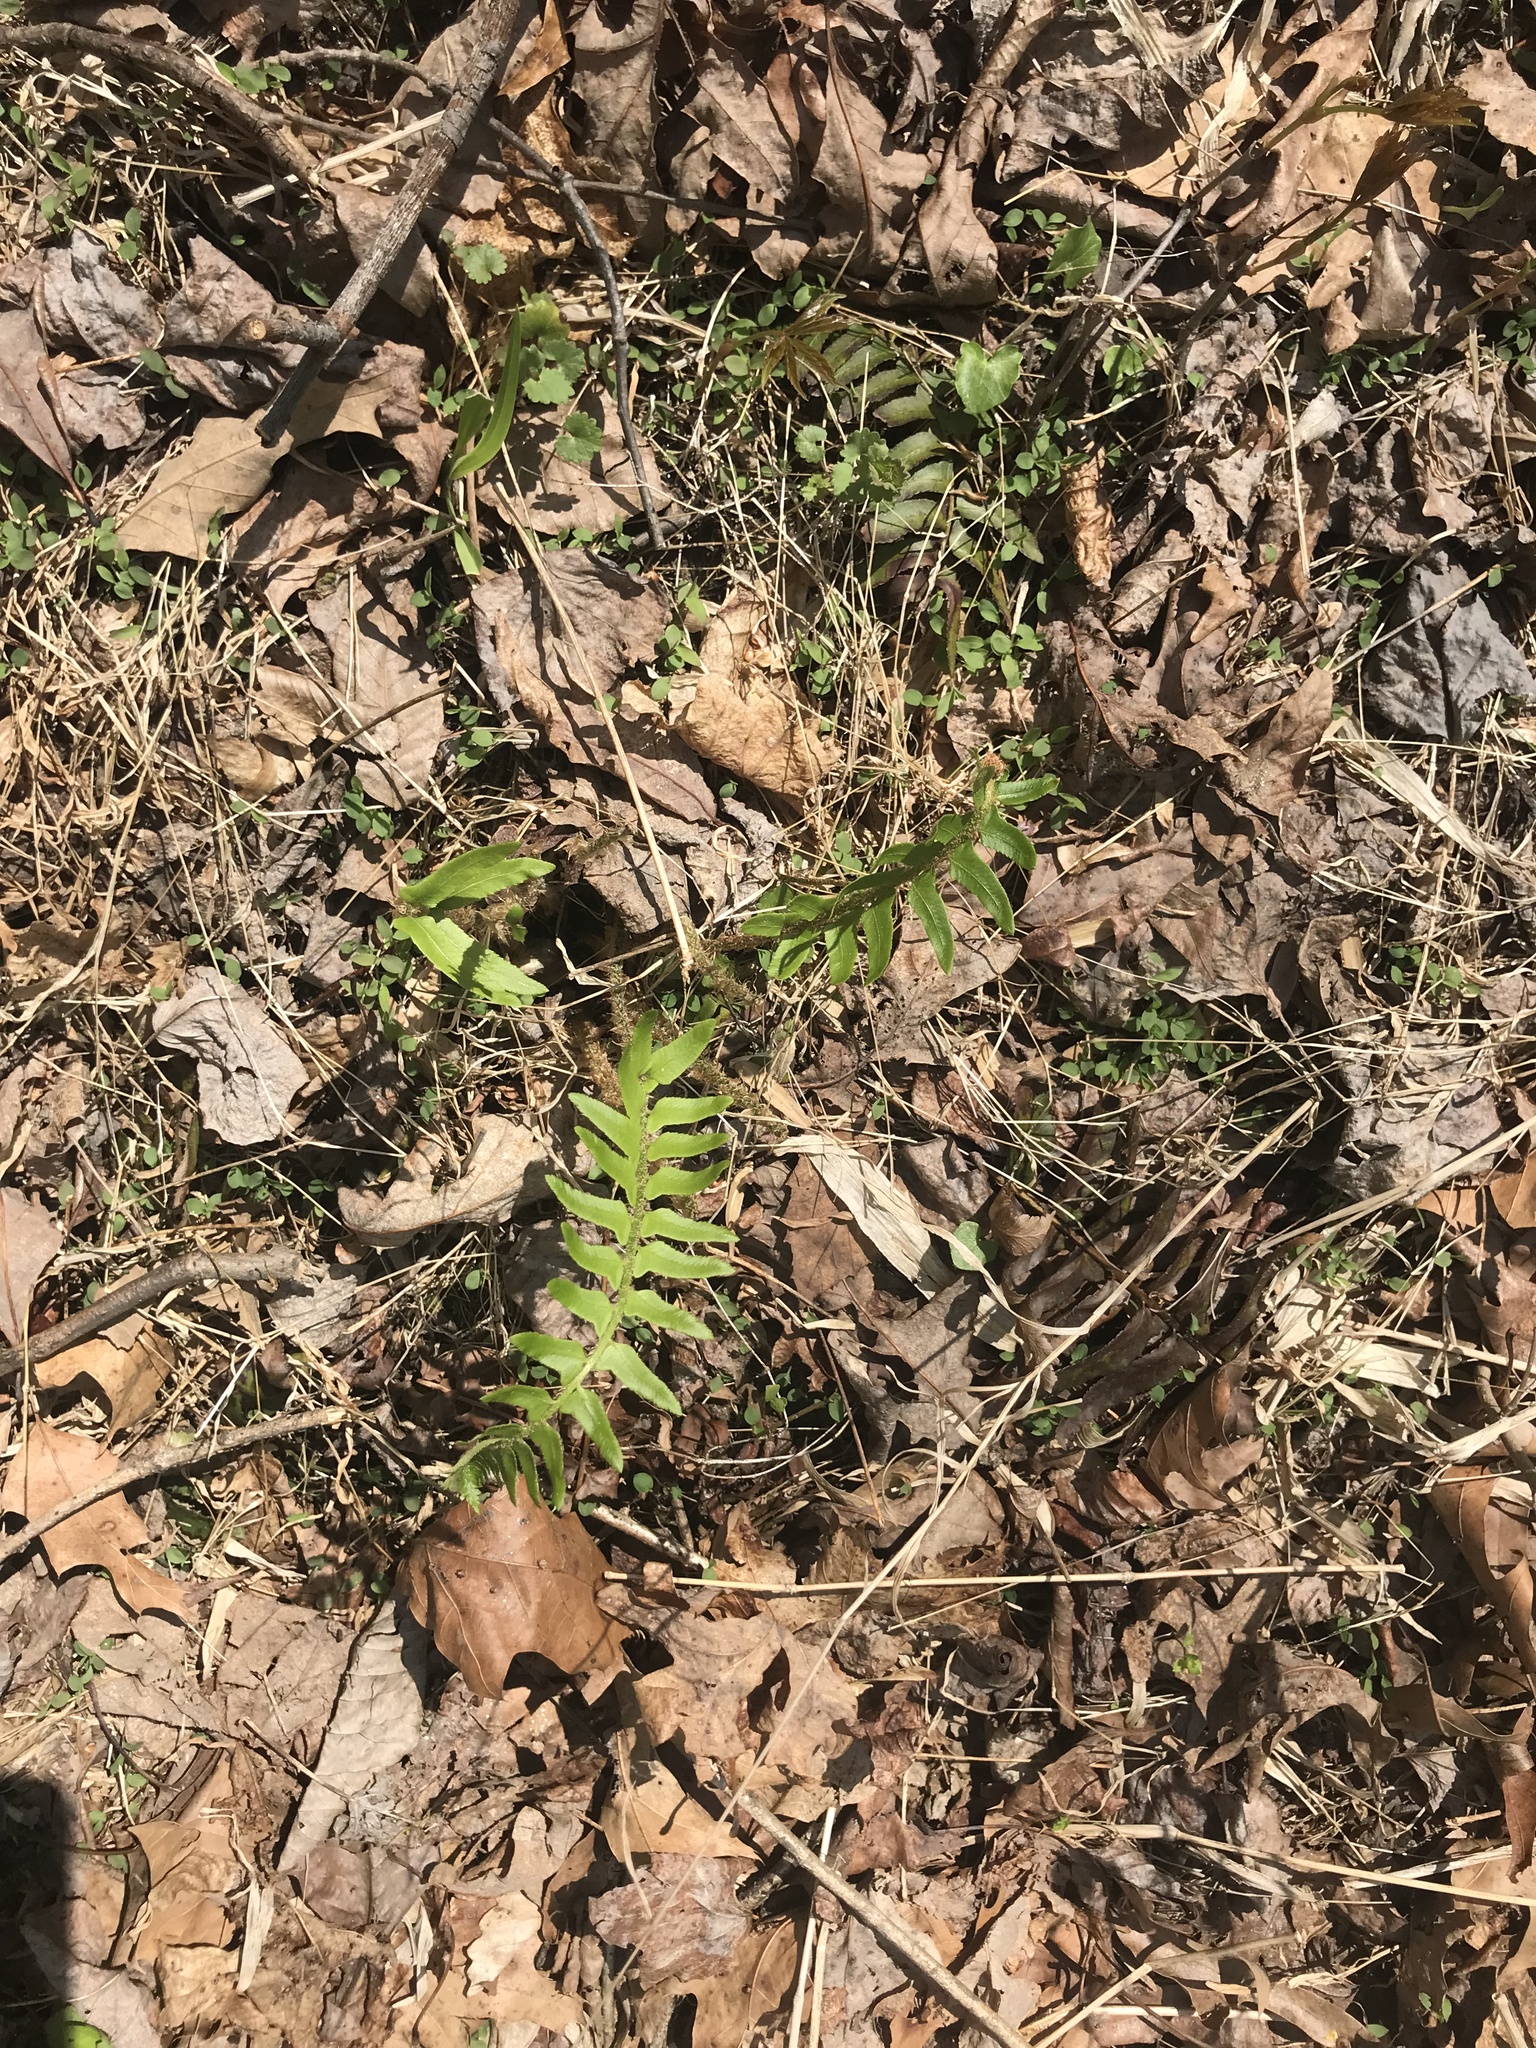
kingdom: Plantae
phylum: Tracheophyta
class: Polypodiopsida
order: Polypodiales
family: Dryopteridaceae
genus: Polystichum
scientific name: Polystichum acrostichoides
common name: Christmas fern
